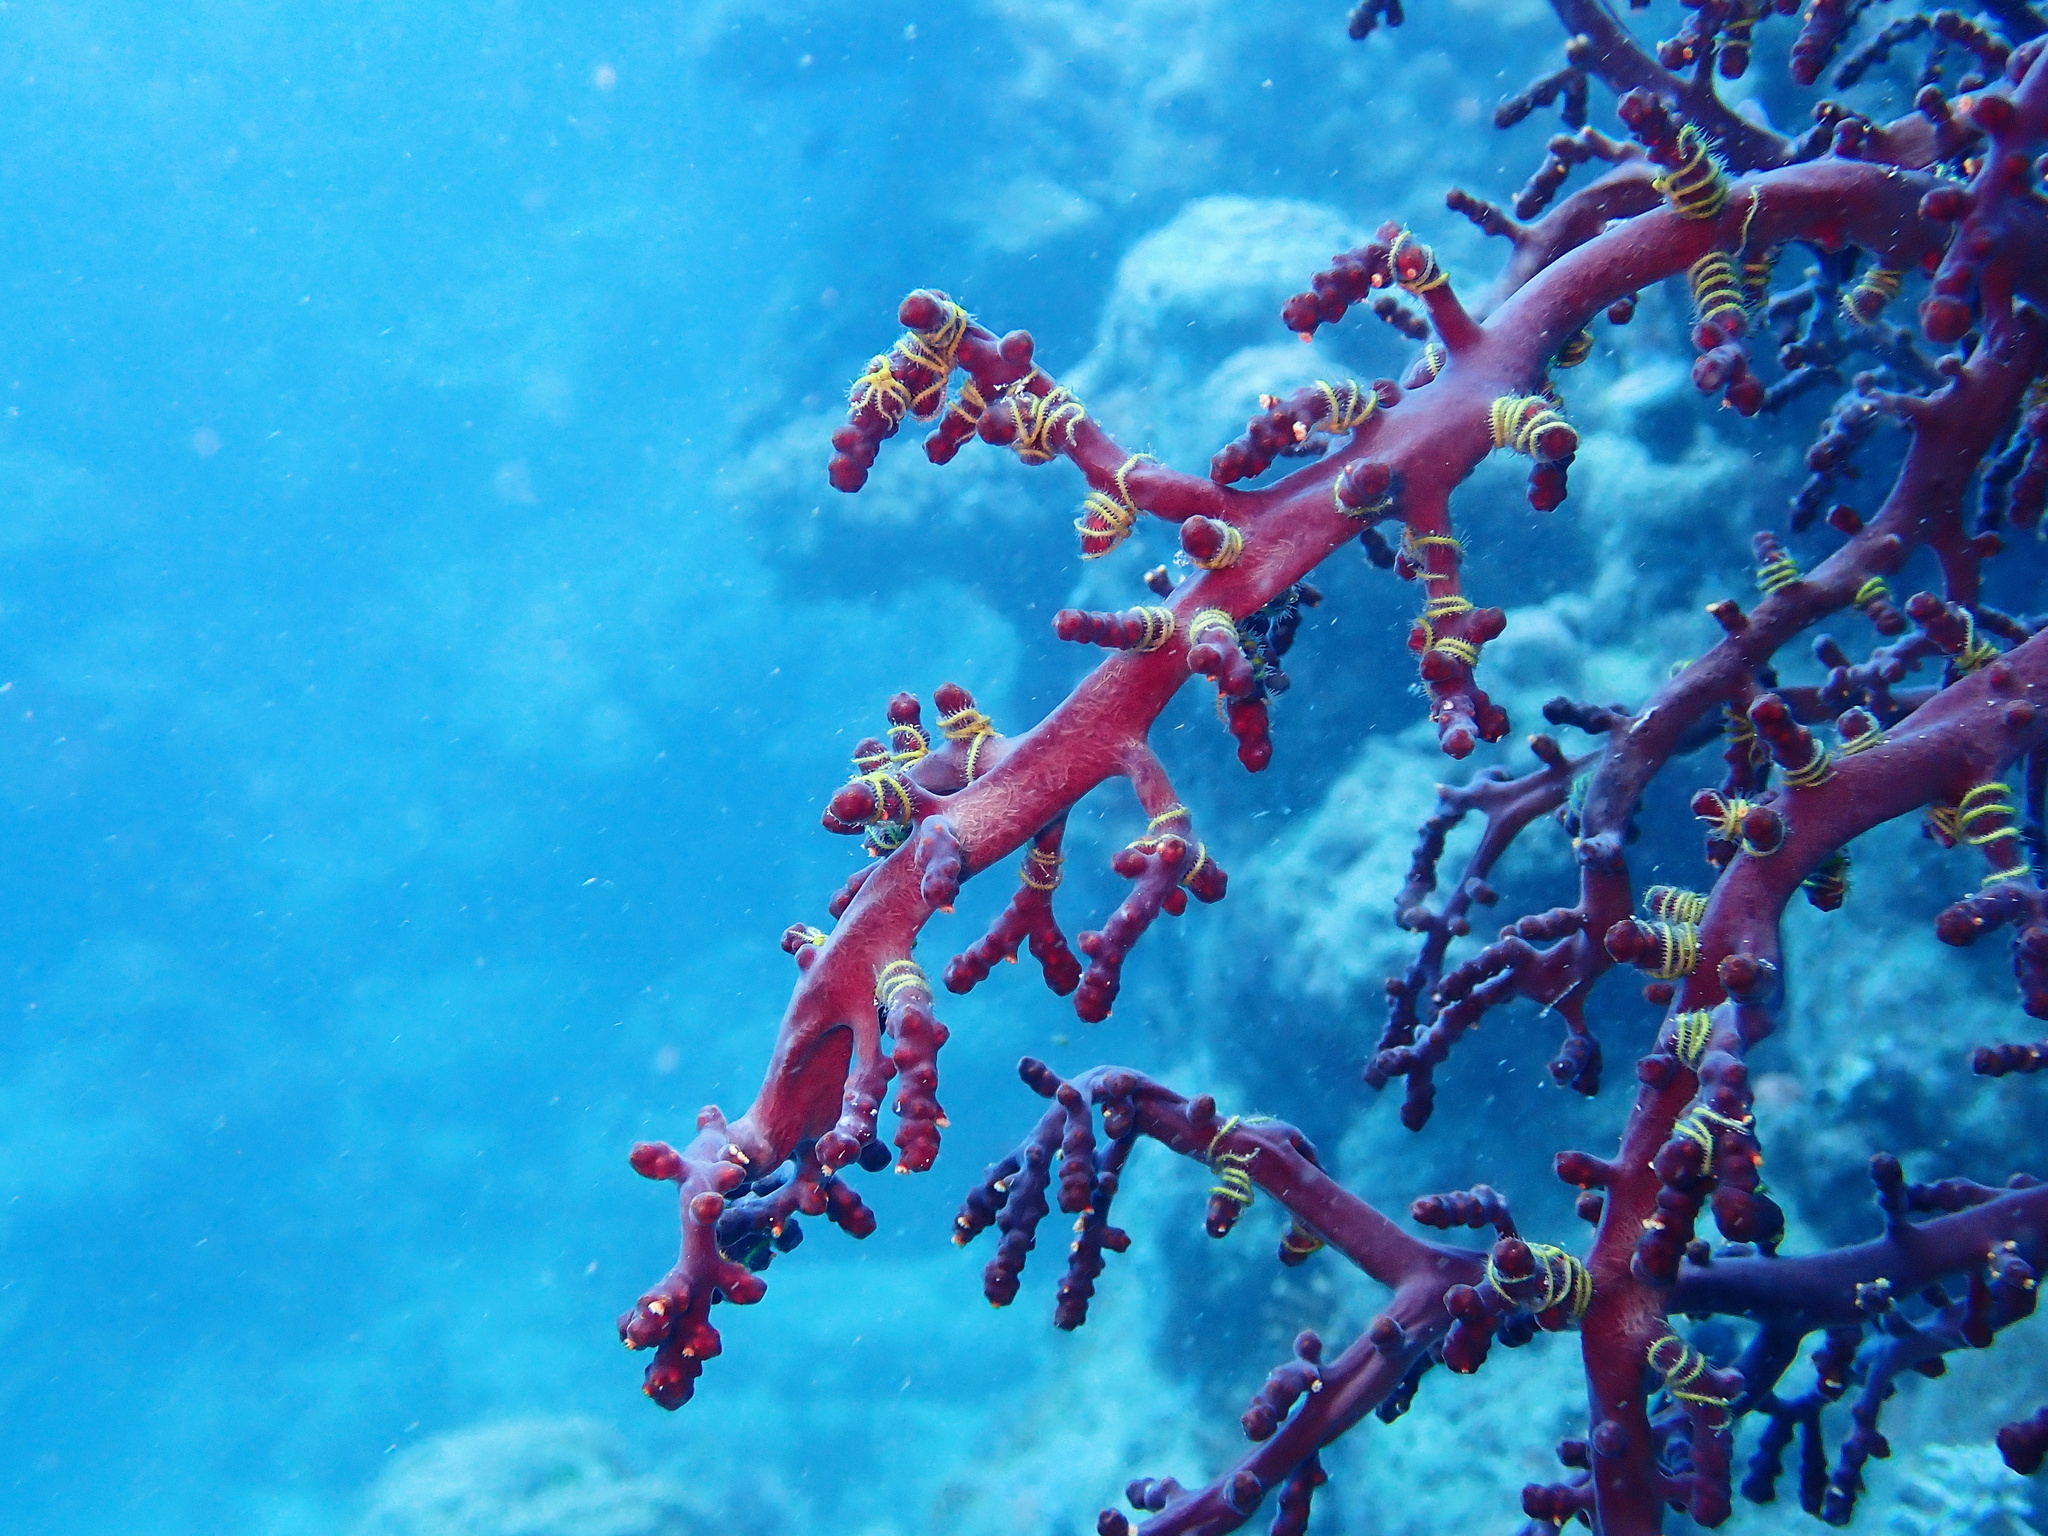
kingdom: Animalia
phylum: Echinodermata
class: Ophiuroidea
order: Amphilepidida
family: Ophiotrichidae
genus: Ophiothela
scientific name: Ophiothela mirabilis
